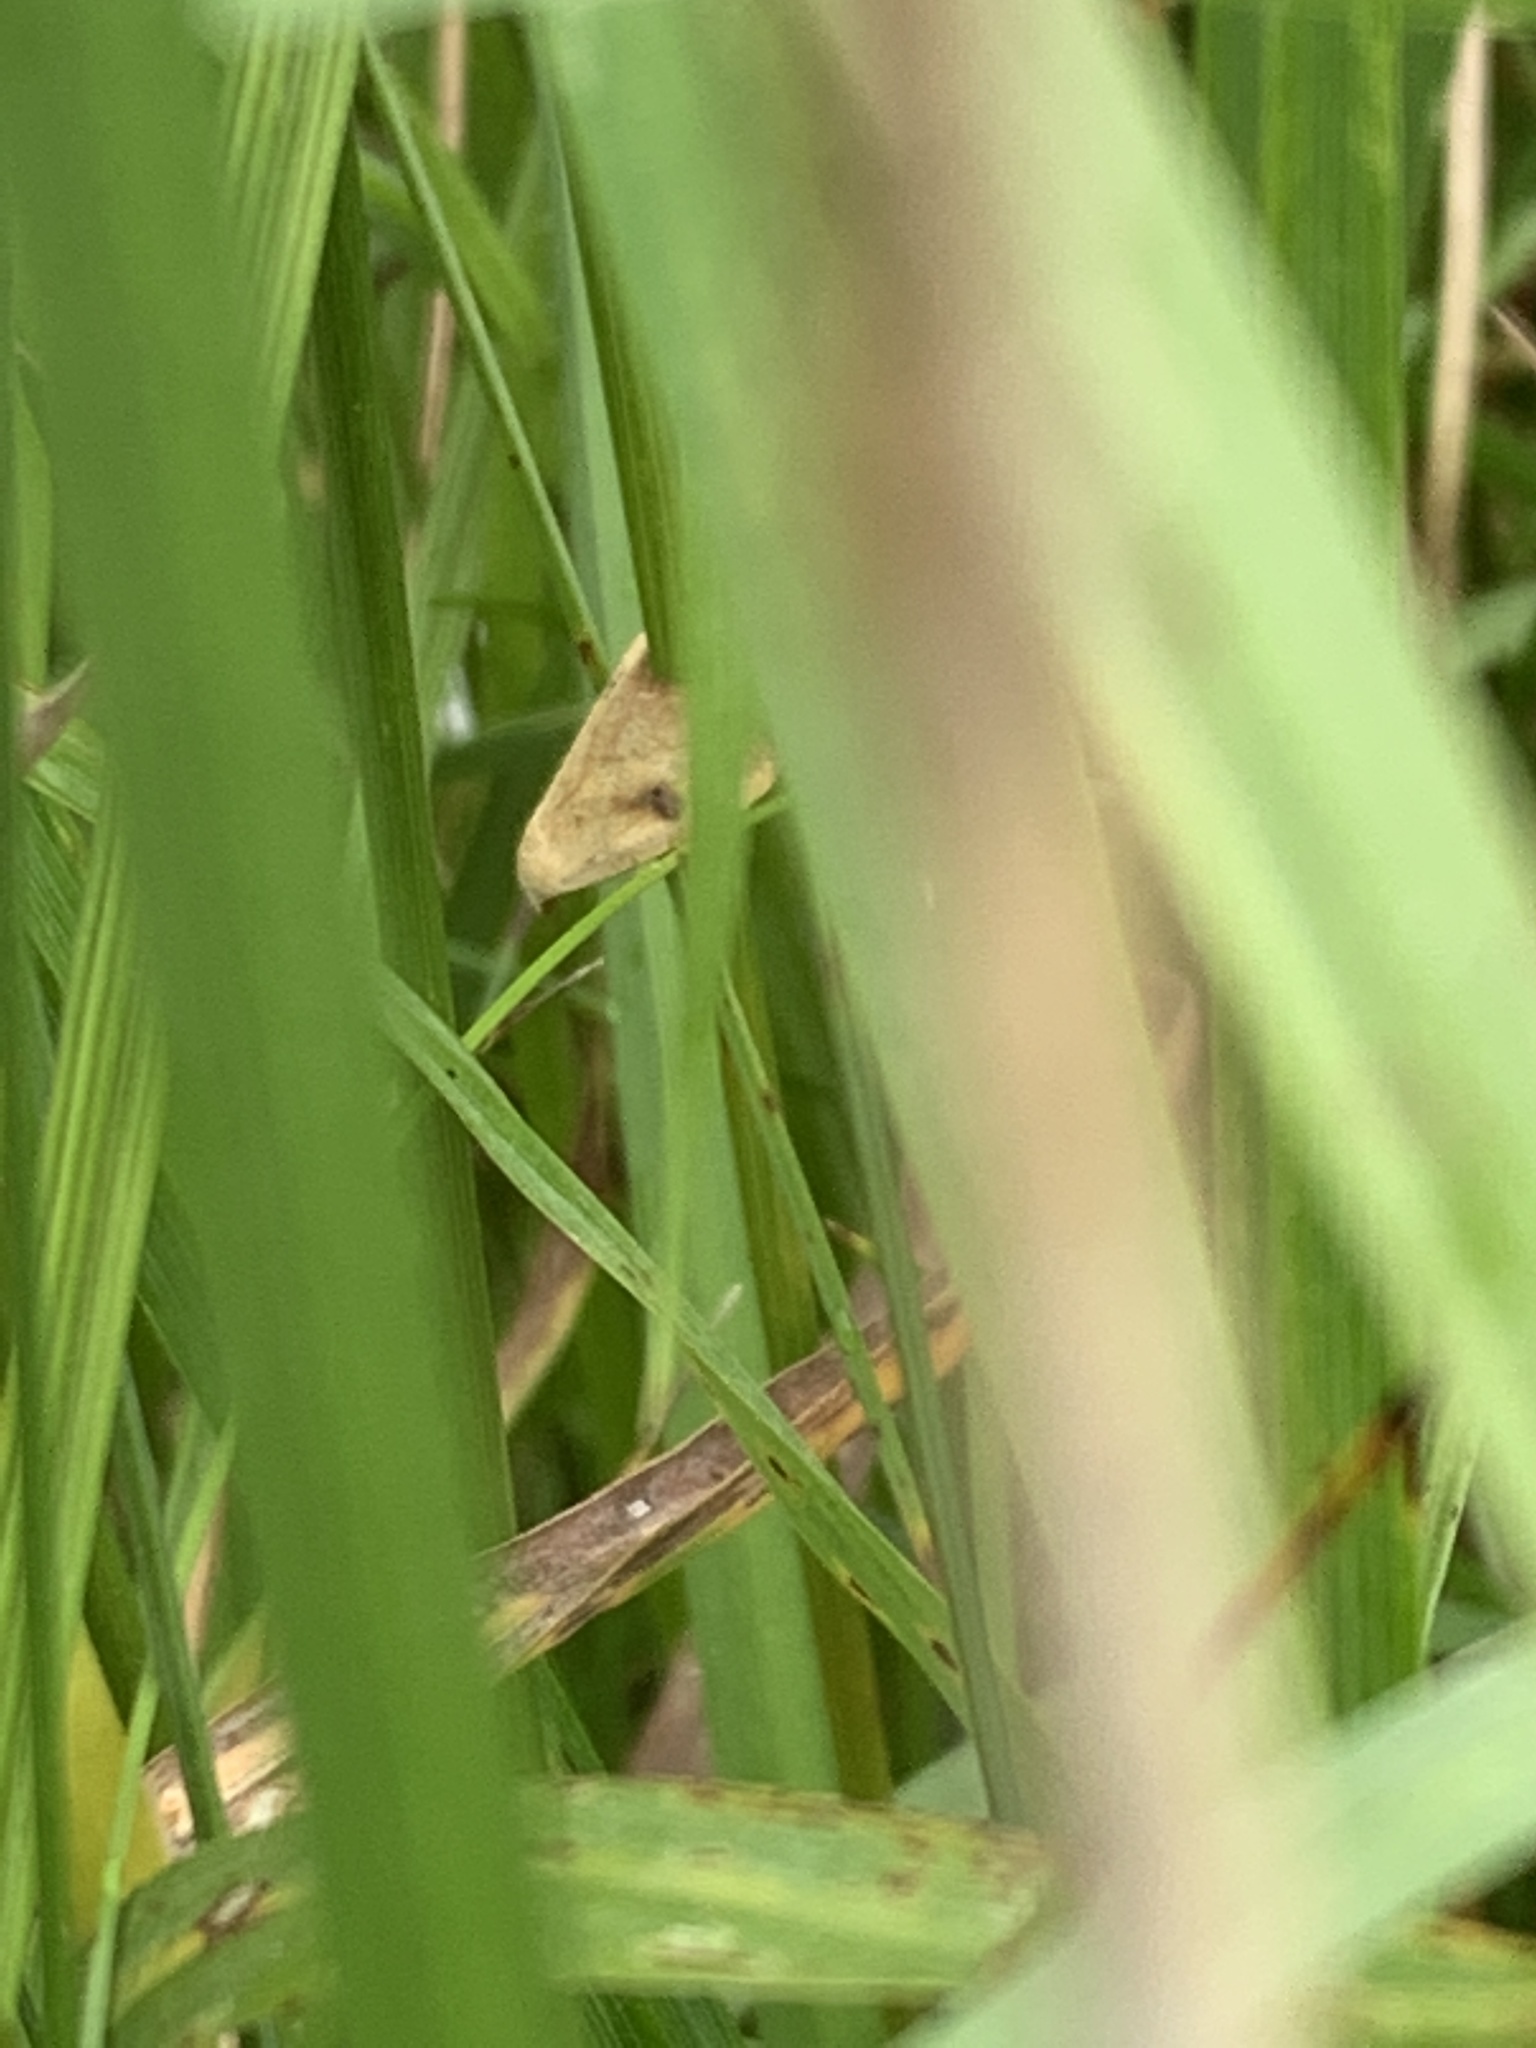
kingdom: Animalia
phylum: Arthropoda
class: Insecta
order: Lepidoptera
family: Erebidae
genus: Rivula
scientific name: Rivula sericealis
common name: Straw dot
